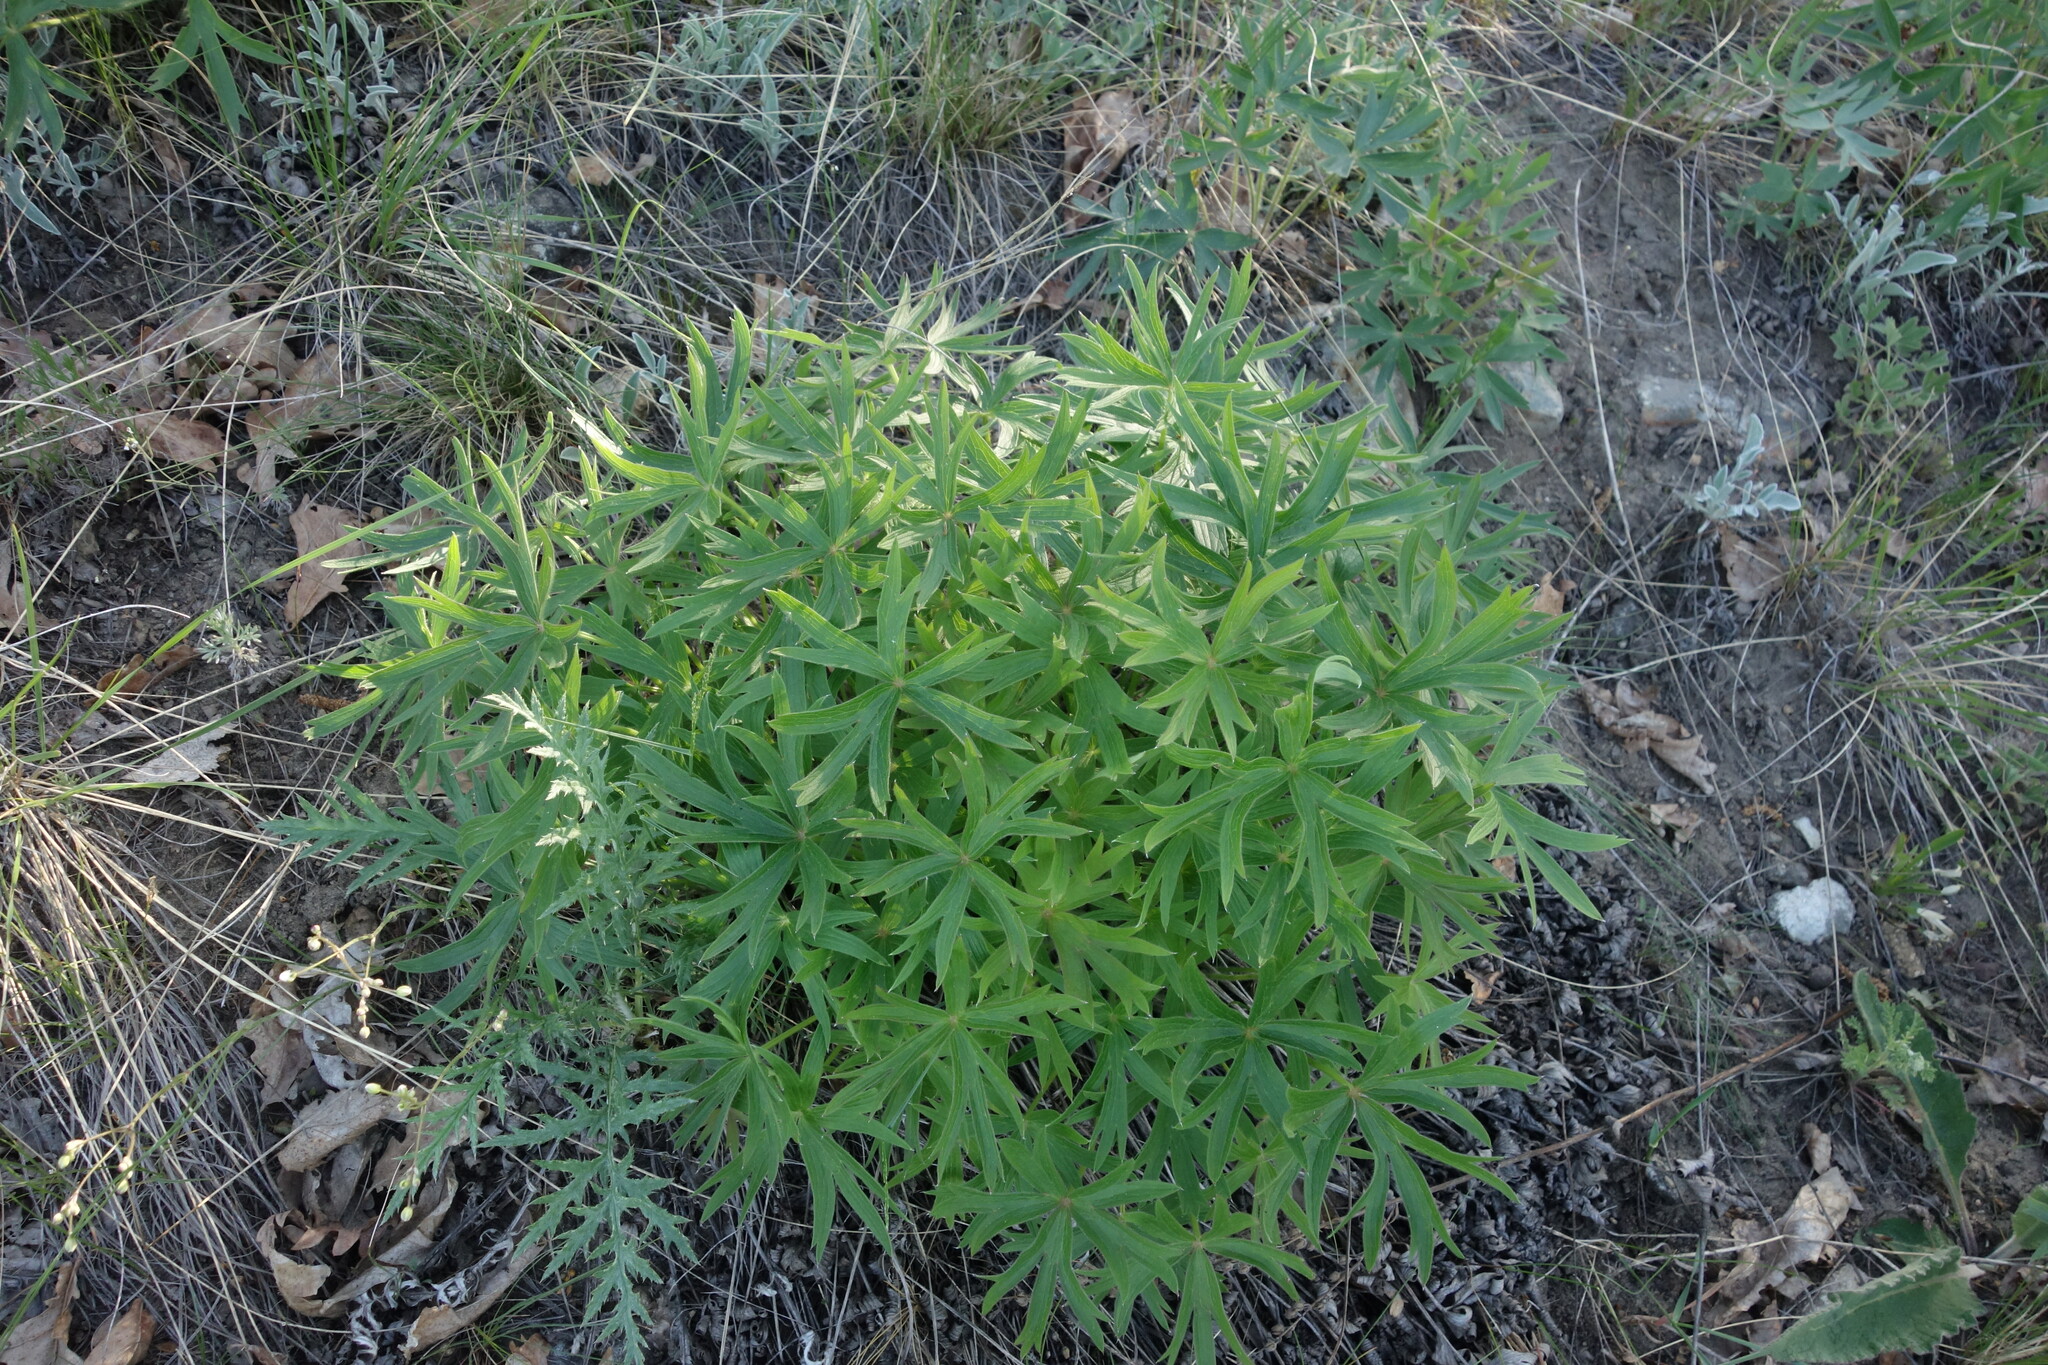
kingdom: Plantae
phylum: Tracheophyta
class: Magnoliopsida
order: Ranunculales
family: Ranunculaceae
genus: Pulsatilla
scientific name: Pulsatilla patens
